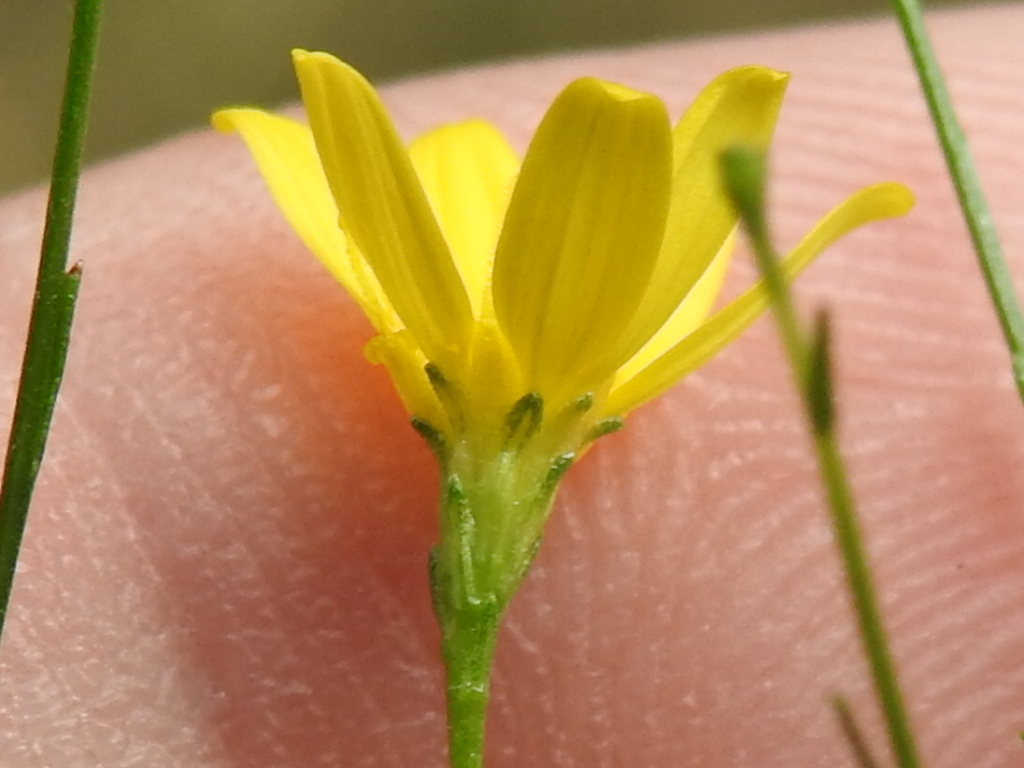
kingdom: Plantae
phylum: Tracheophyta
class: Magnoliopsida
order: Asterales
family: Asteraceae
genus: Gutierrezia
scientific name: Gutierrezia texana
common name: Texas snakeweed
